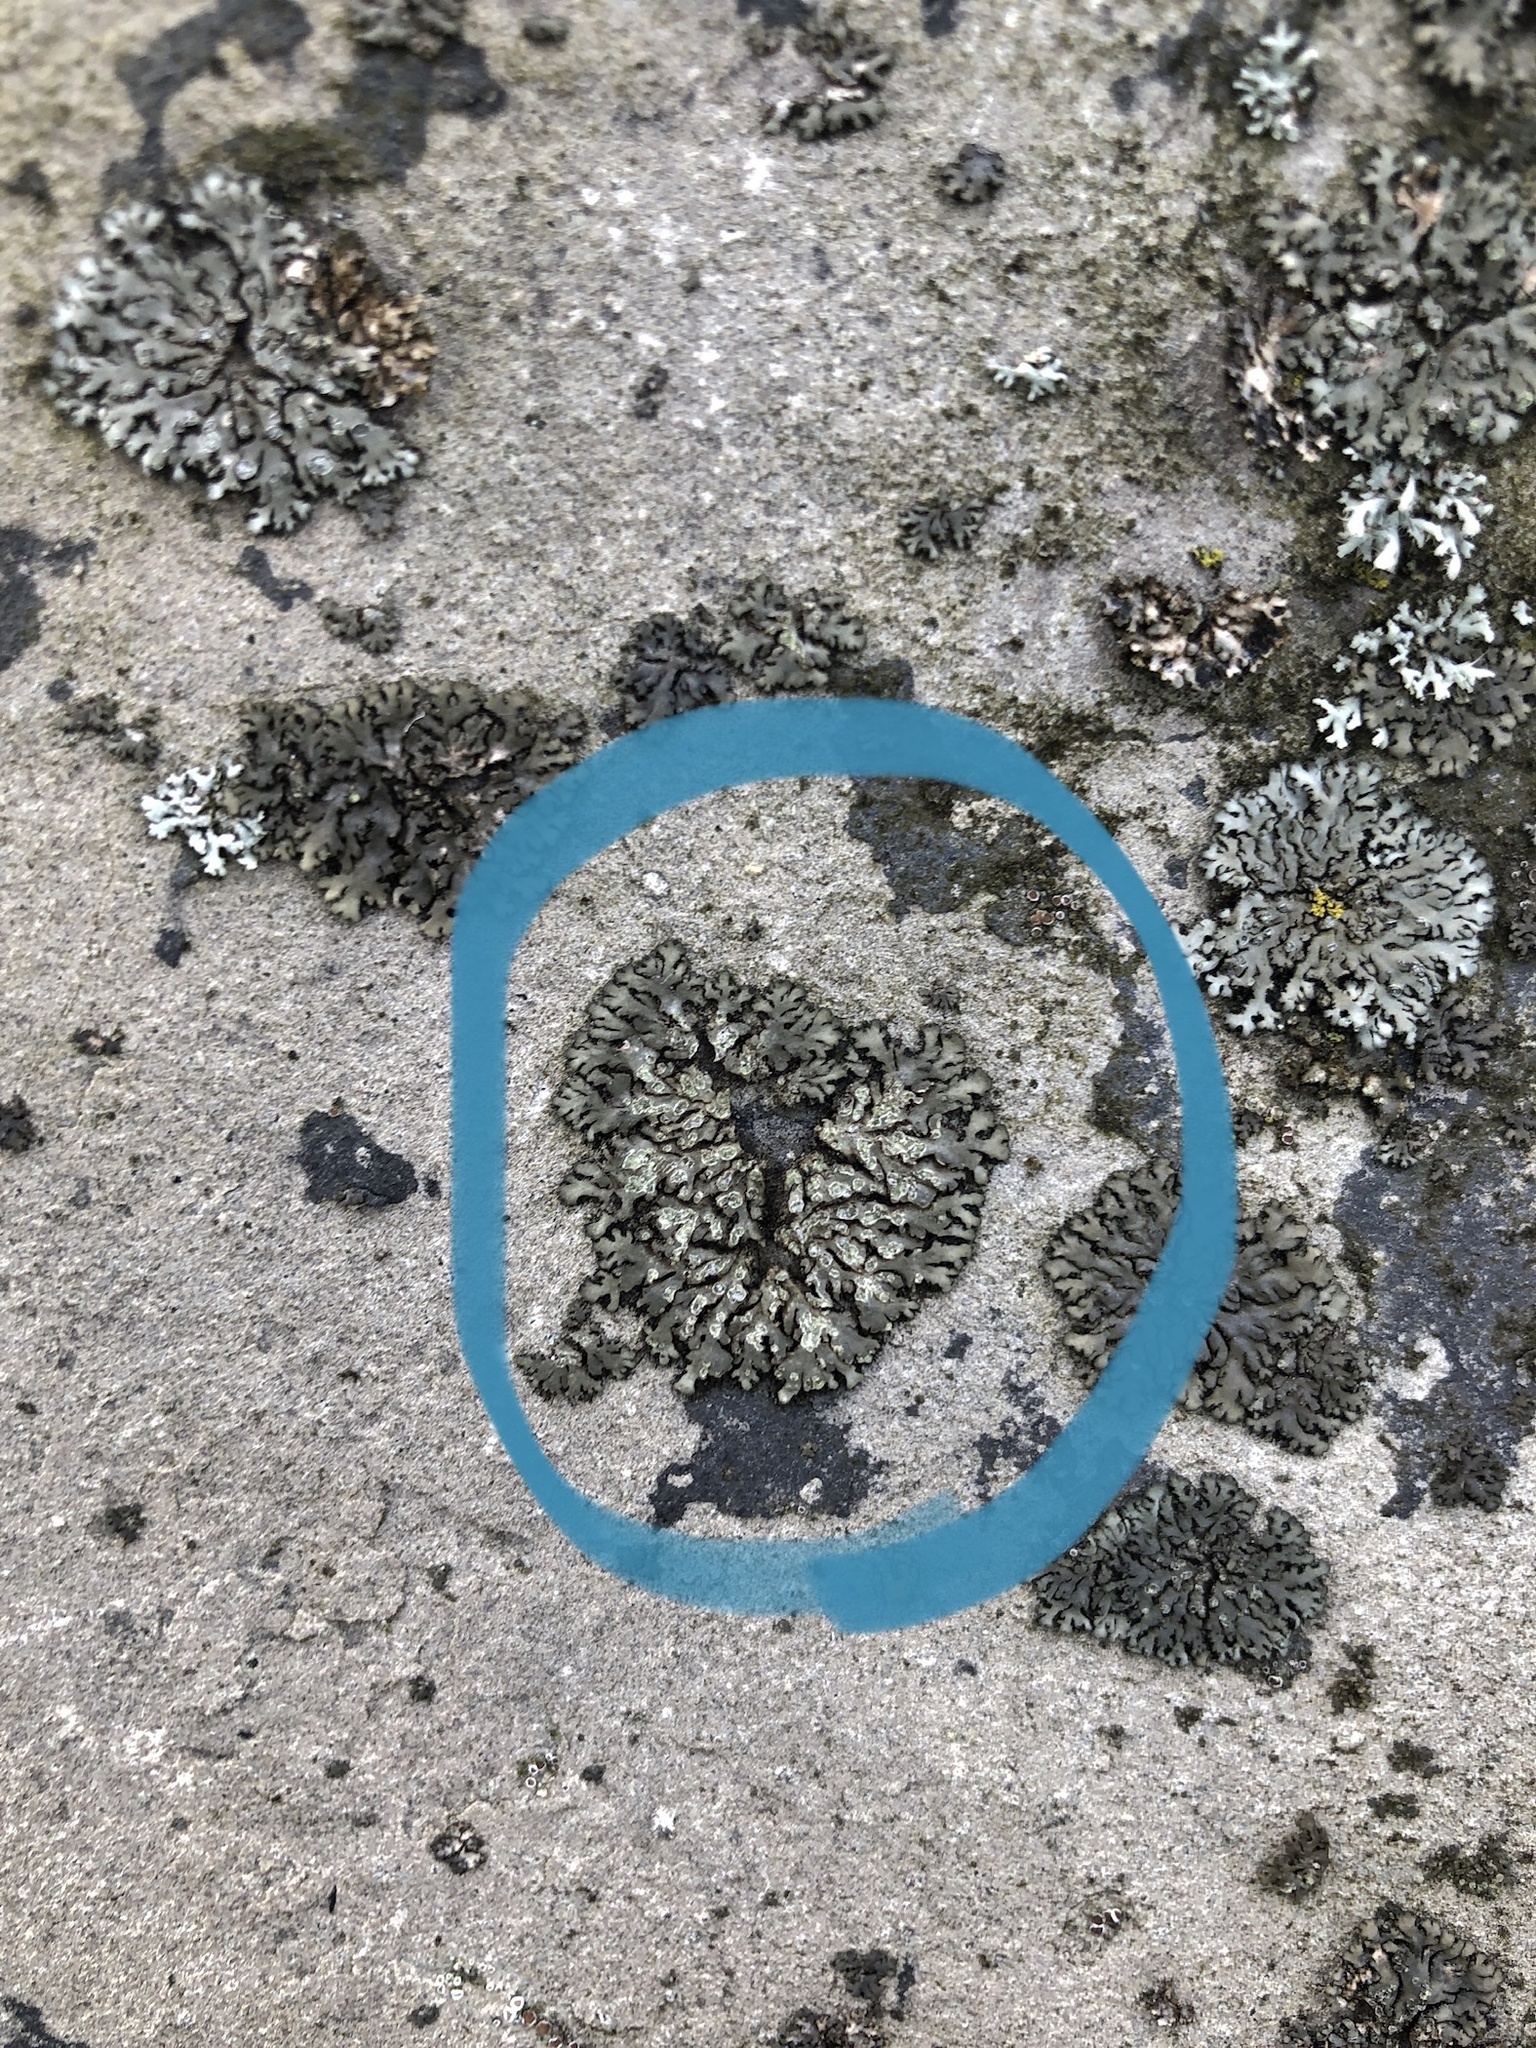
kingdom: Fungi
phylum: Ascomycota
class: Lecanoromycetes
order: Caliciales
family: Physciaceae
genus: Phaeophyscia
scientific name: Phaeophyscia orbicularis
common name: Mealy shadow lichen
